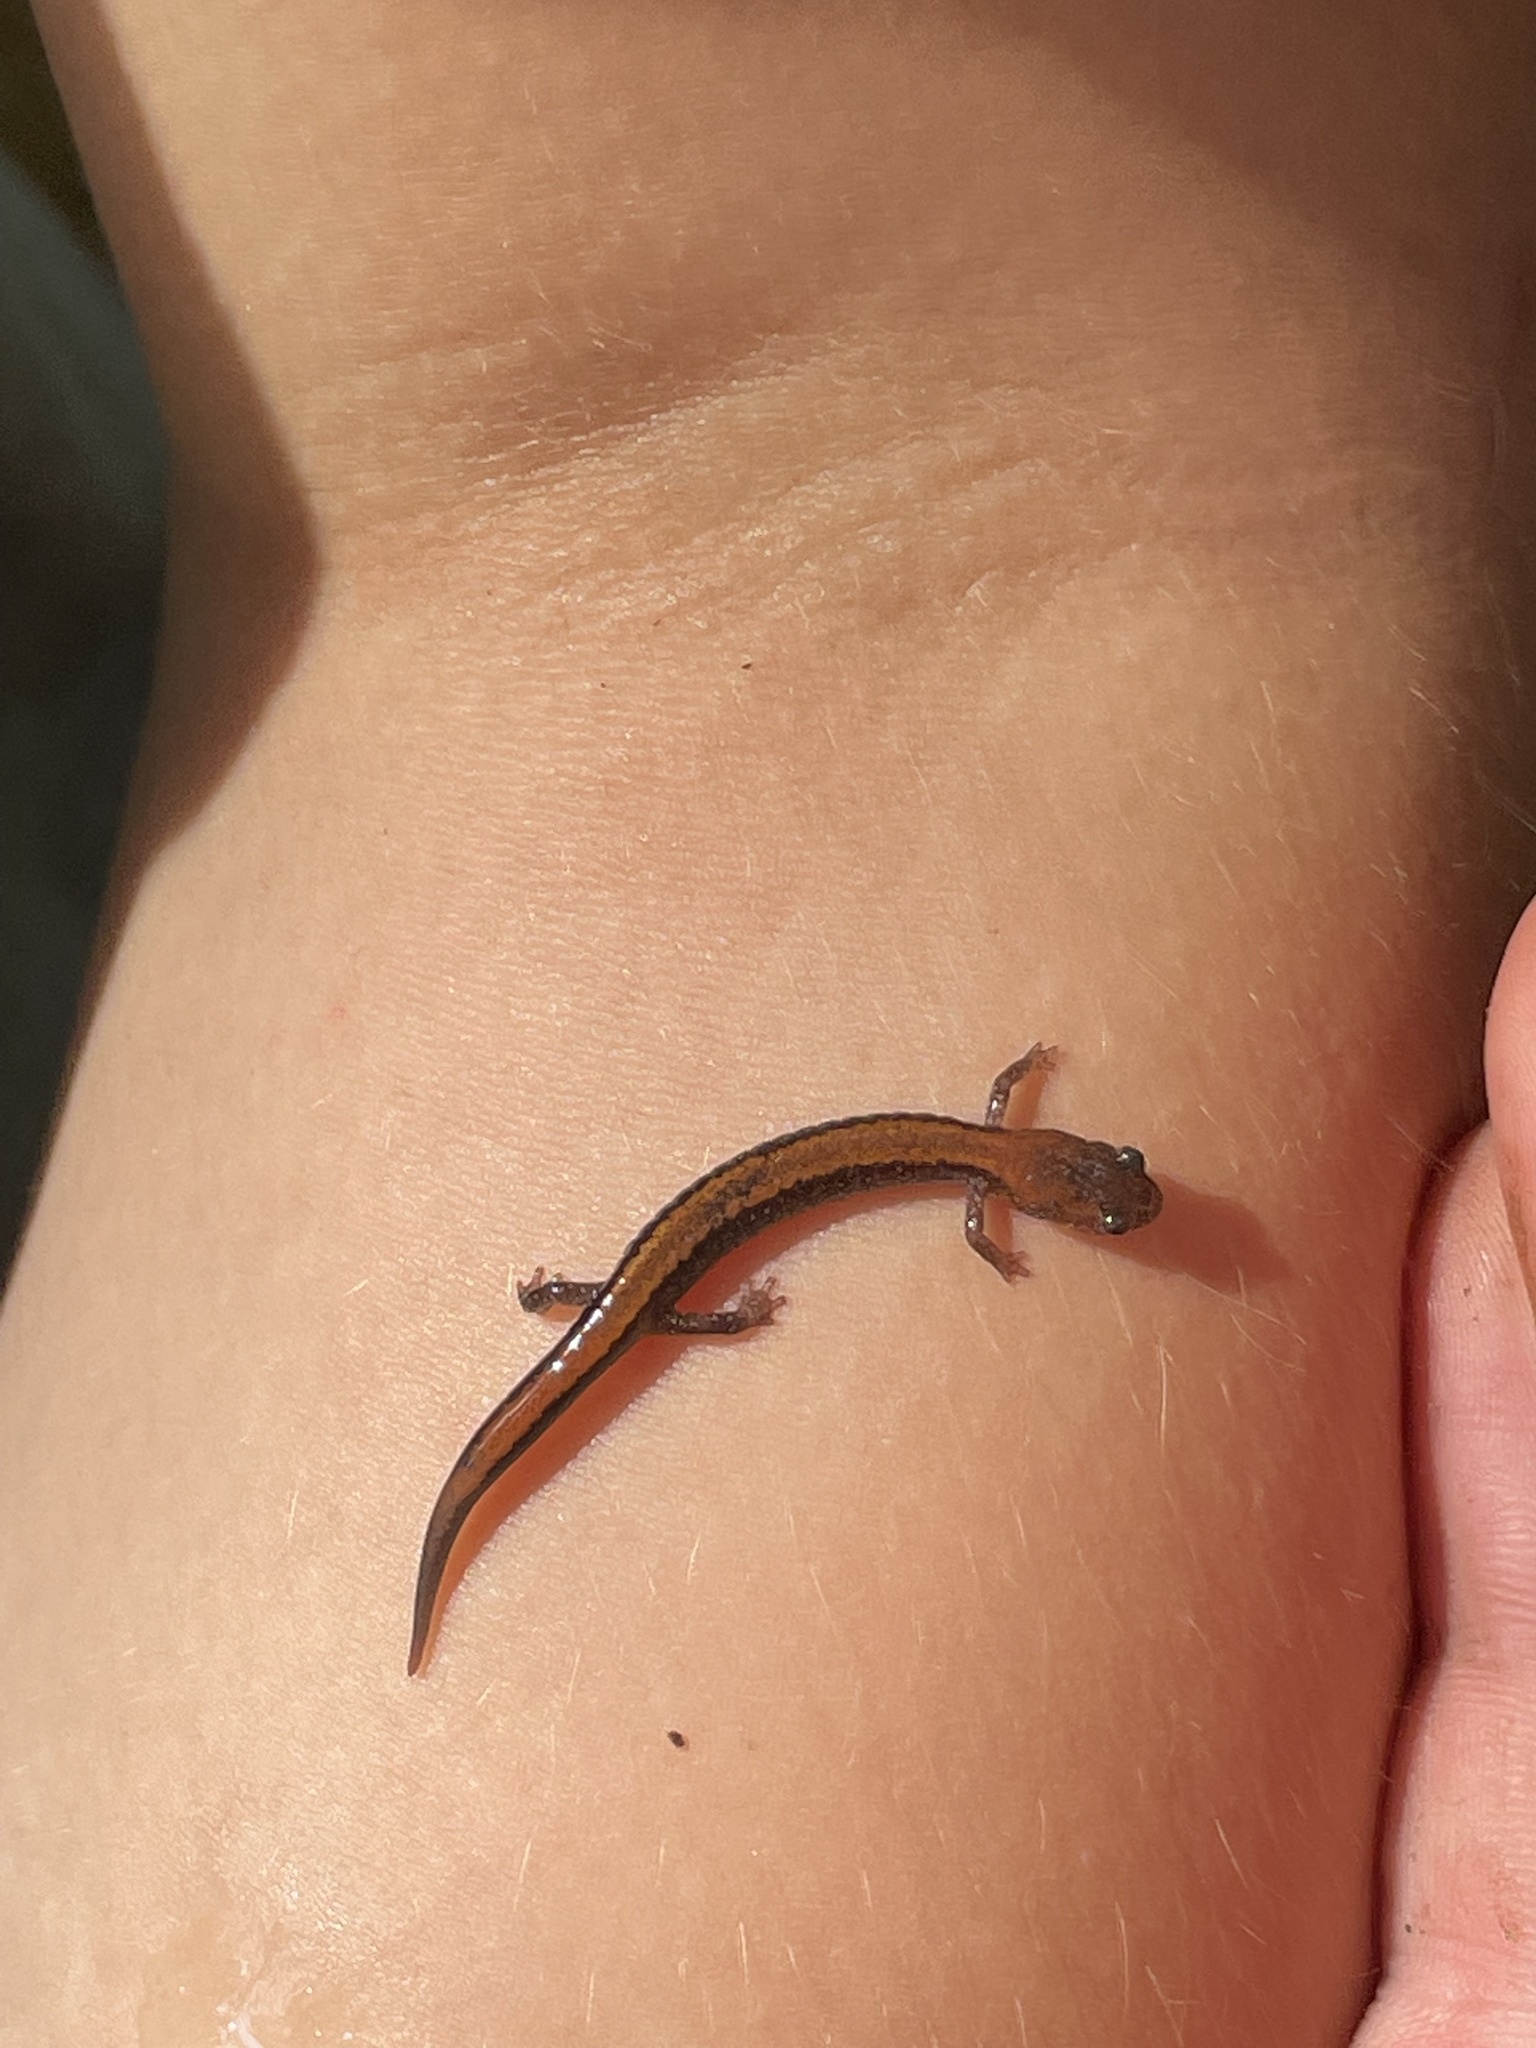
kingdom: Animalia
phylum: Chordata
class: Amphibia
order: Caudata
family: Plethodontidae
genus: Plethodon
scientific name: Plethodon cinereus
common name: Redback salamander
